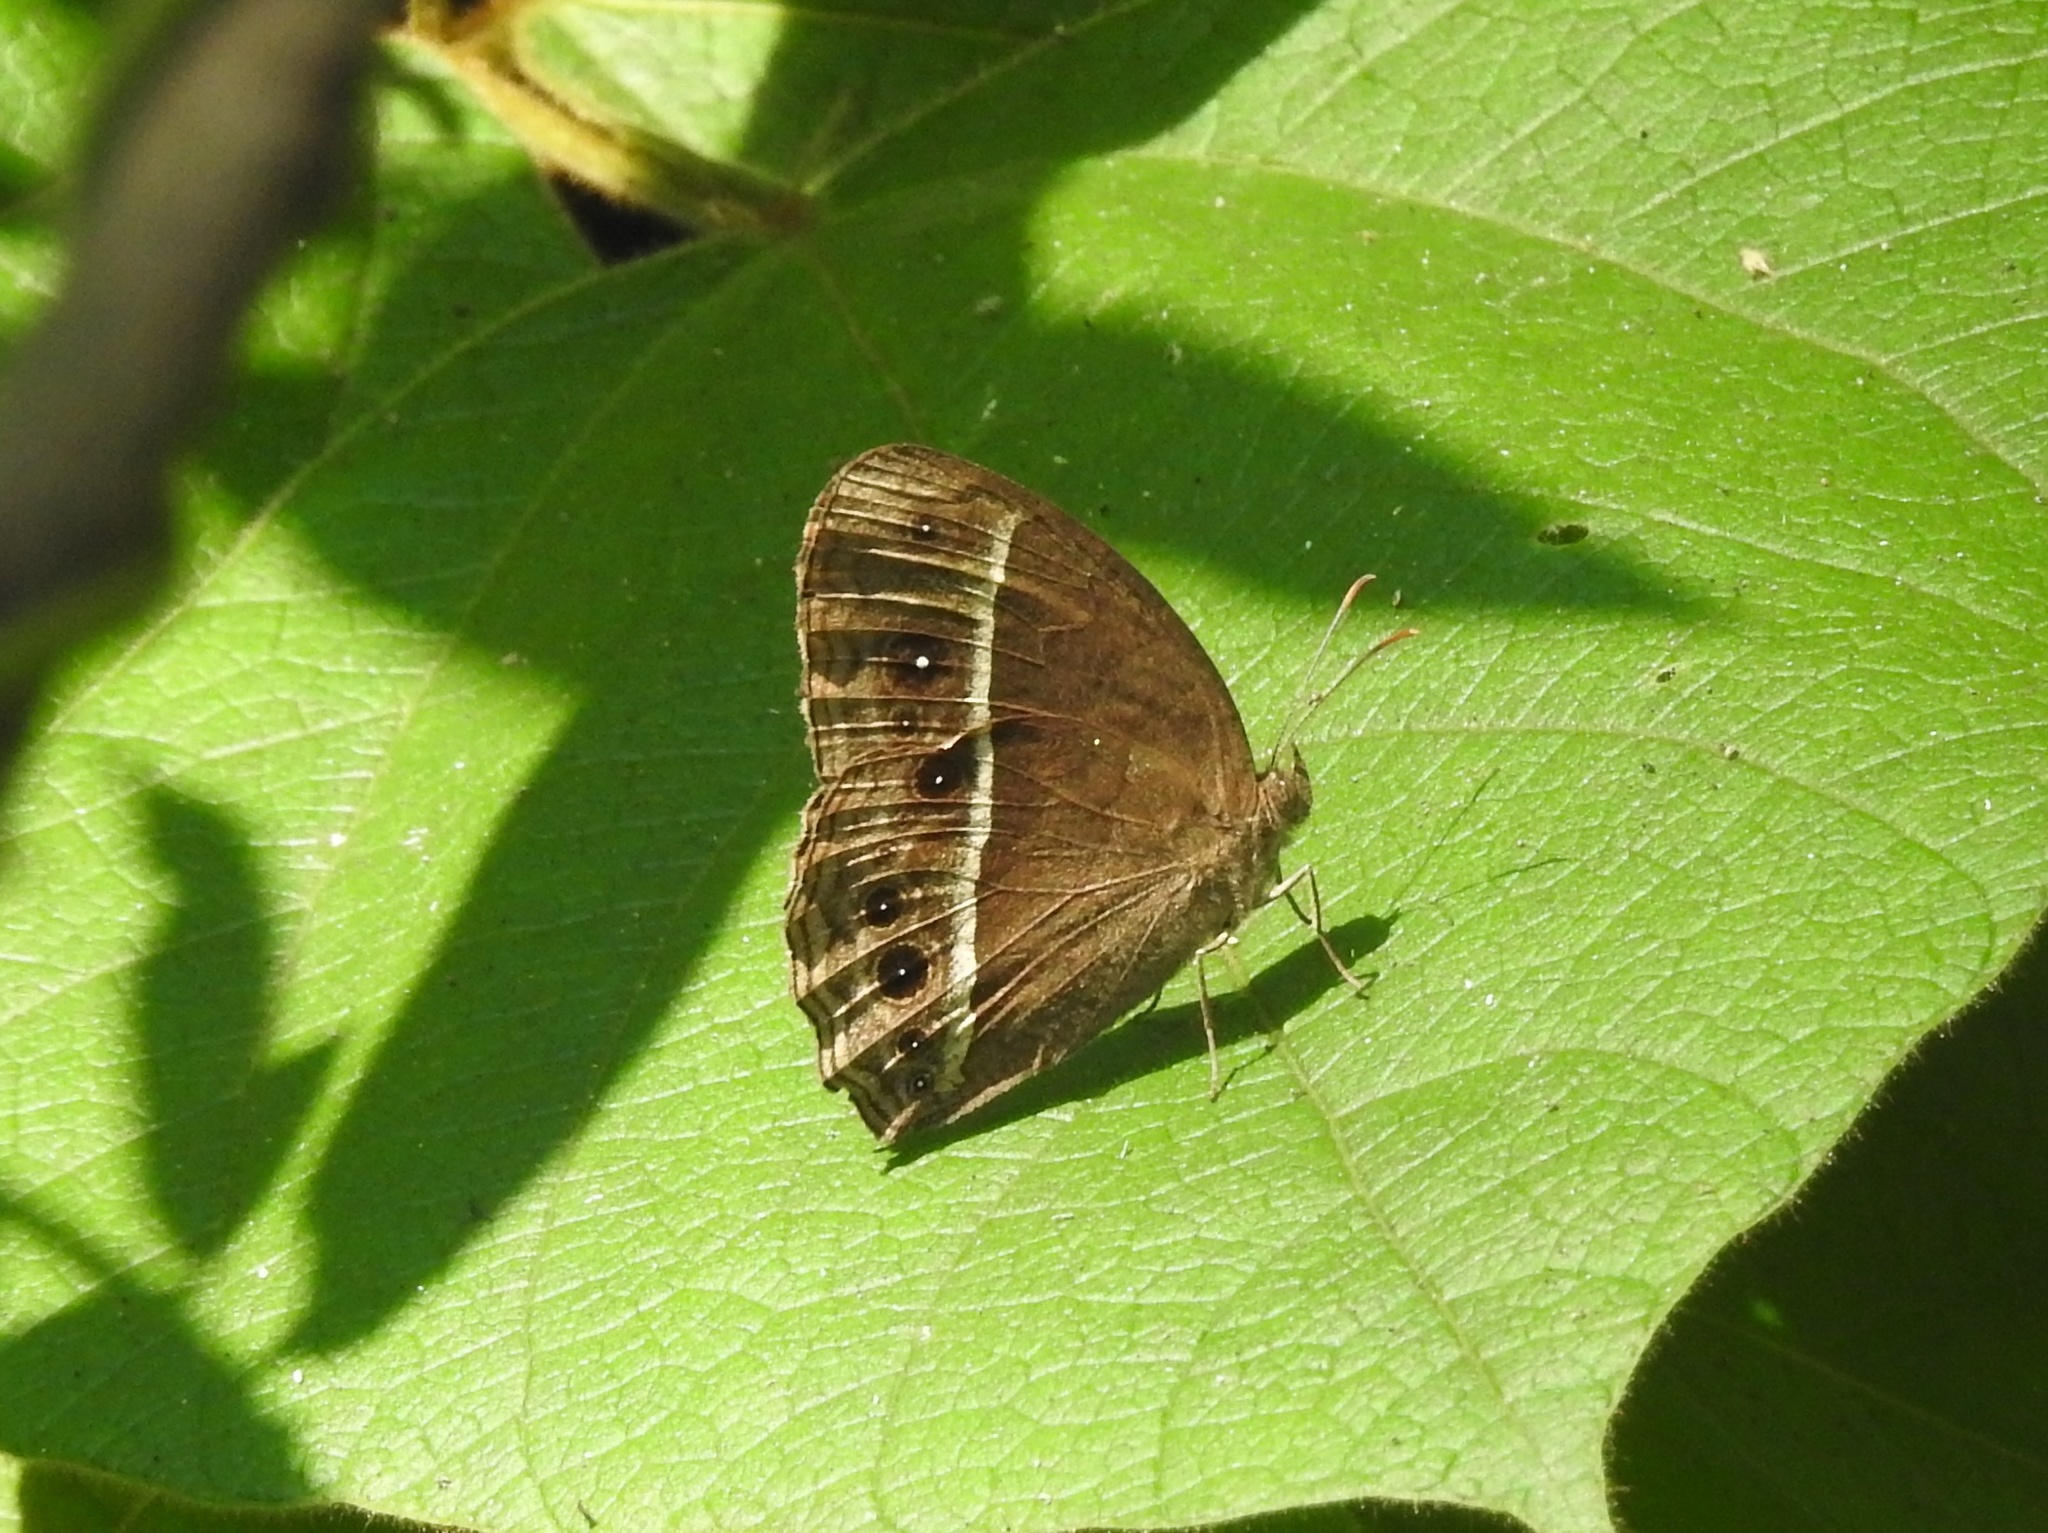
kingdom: Animalia
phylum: Arthropoda
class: Insecta
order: Lepidoptera
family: Nymphalidae
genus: Mycalesis
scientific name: Mycalesis perseus
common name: Dingy bushbrown
